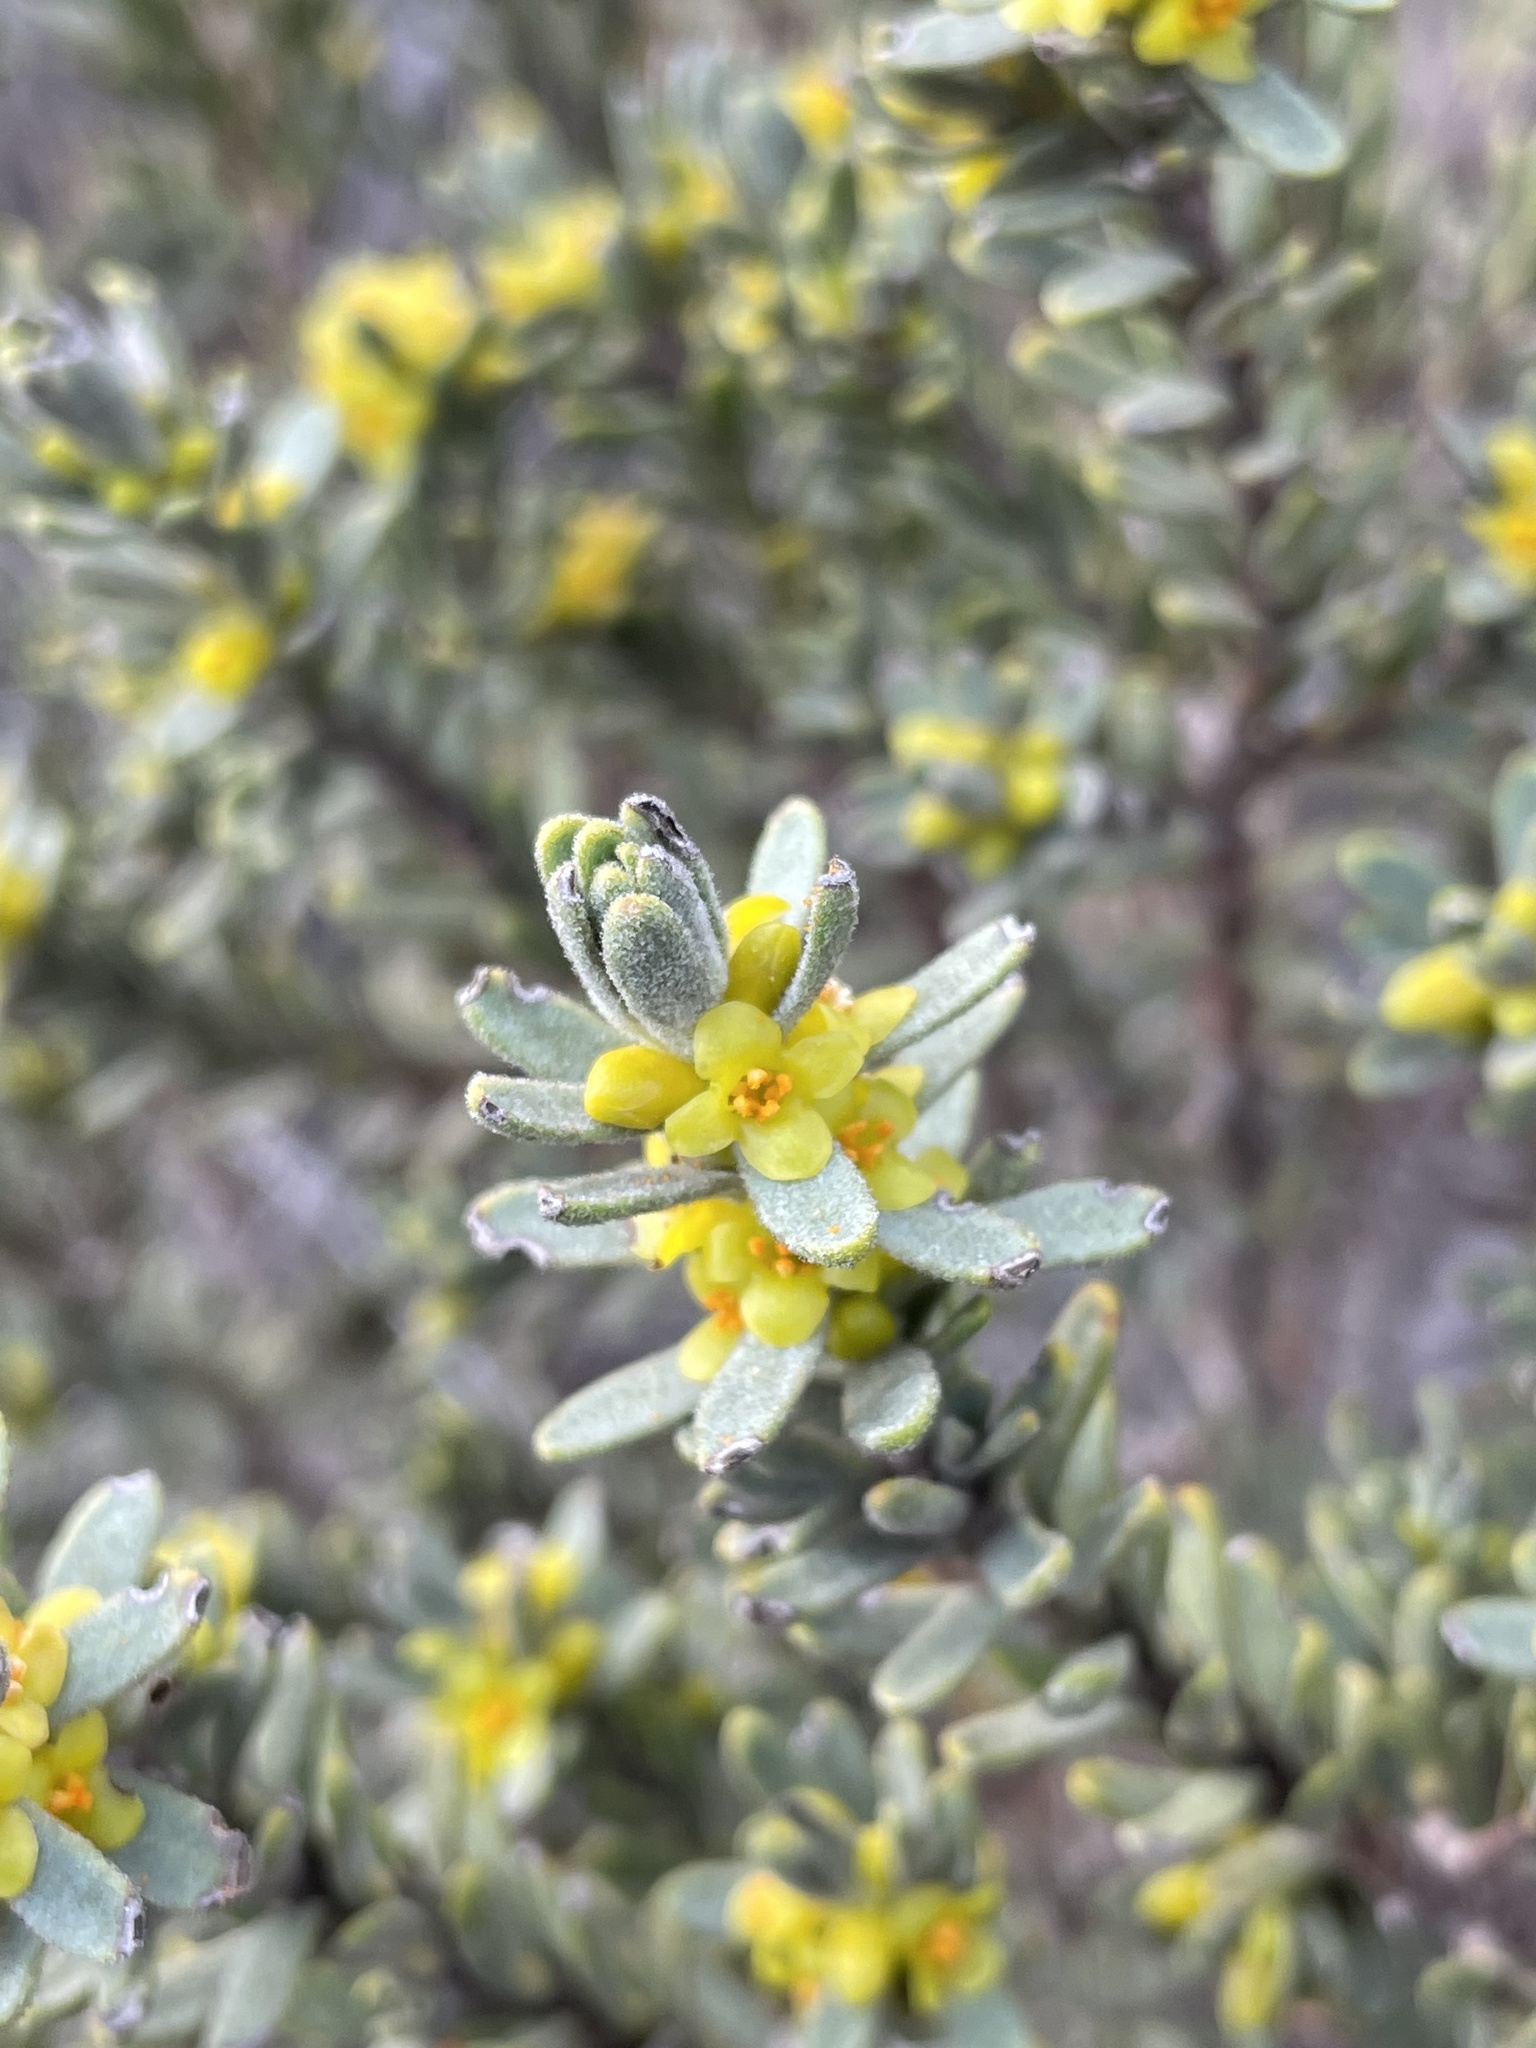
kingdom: Plantae
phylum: Tracheophyta
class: Magnoliopsida
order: Malvales
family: Thymelaeaceae
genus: Thymelaea
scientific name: Thymelaea tinctoria
